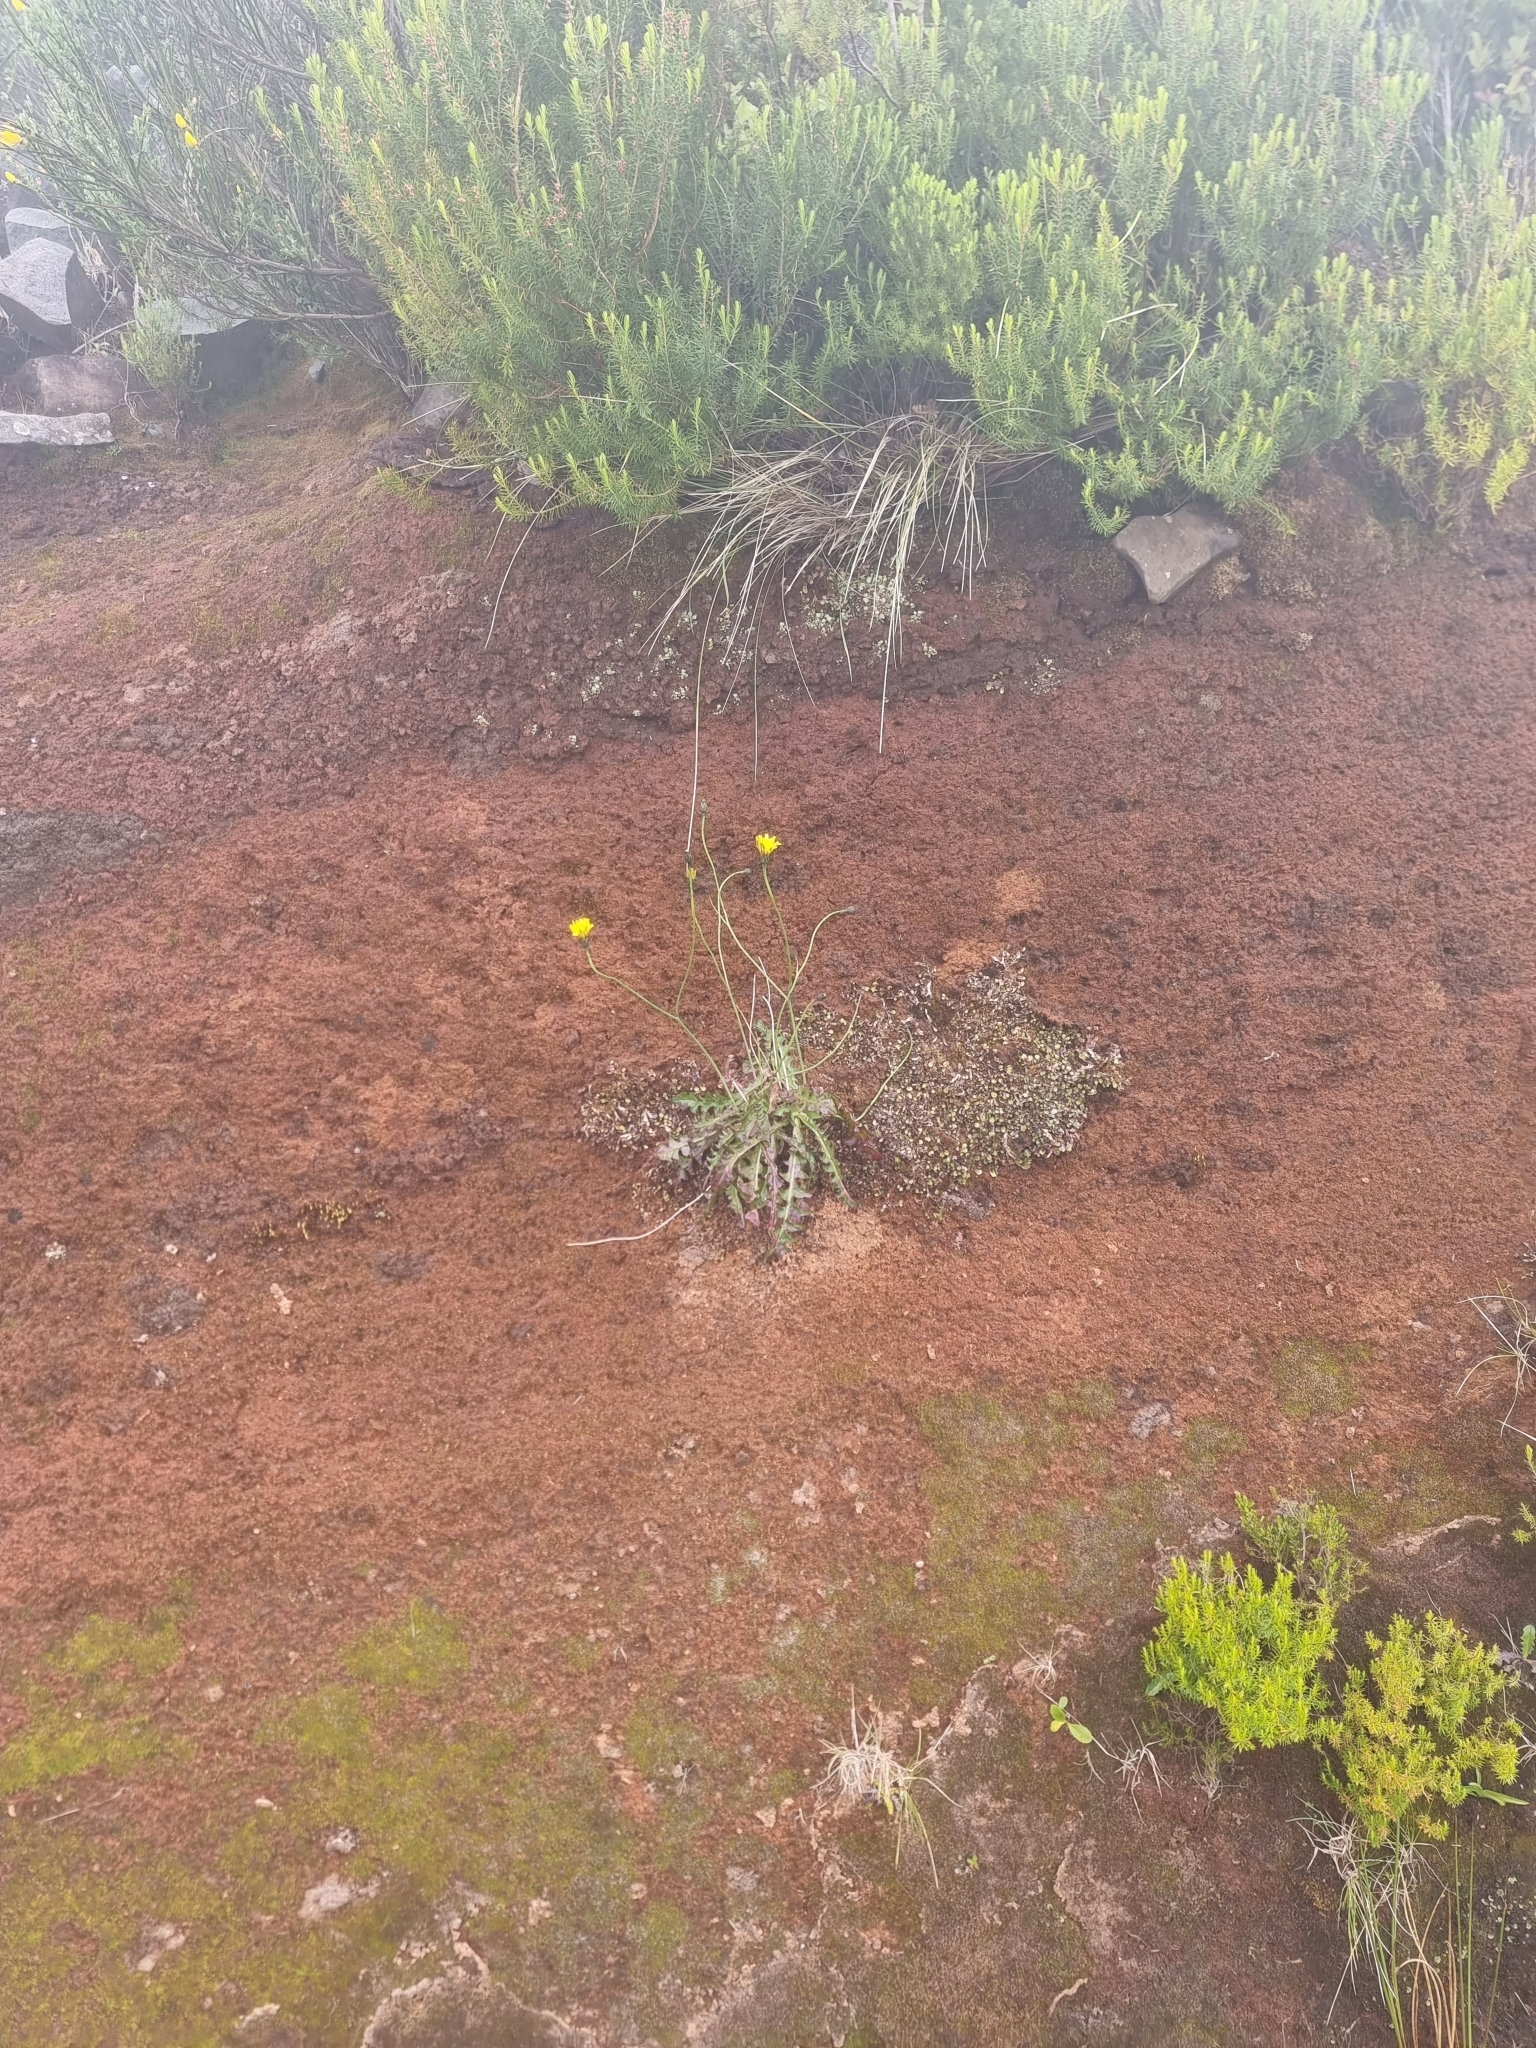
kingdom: Plantae
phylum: Tracheophyta
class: Magnoliopsida
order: Asterales
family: Asteraceae
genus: Hypochaeris
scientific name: Hypochaeris radicata
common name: Flatweed
